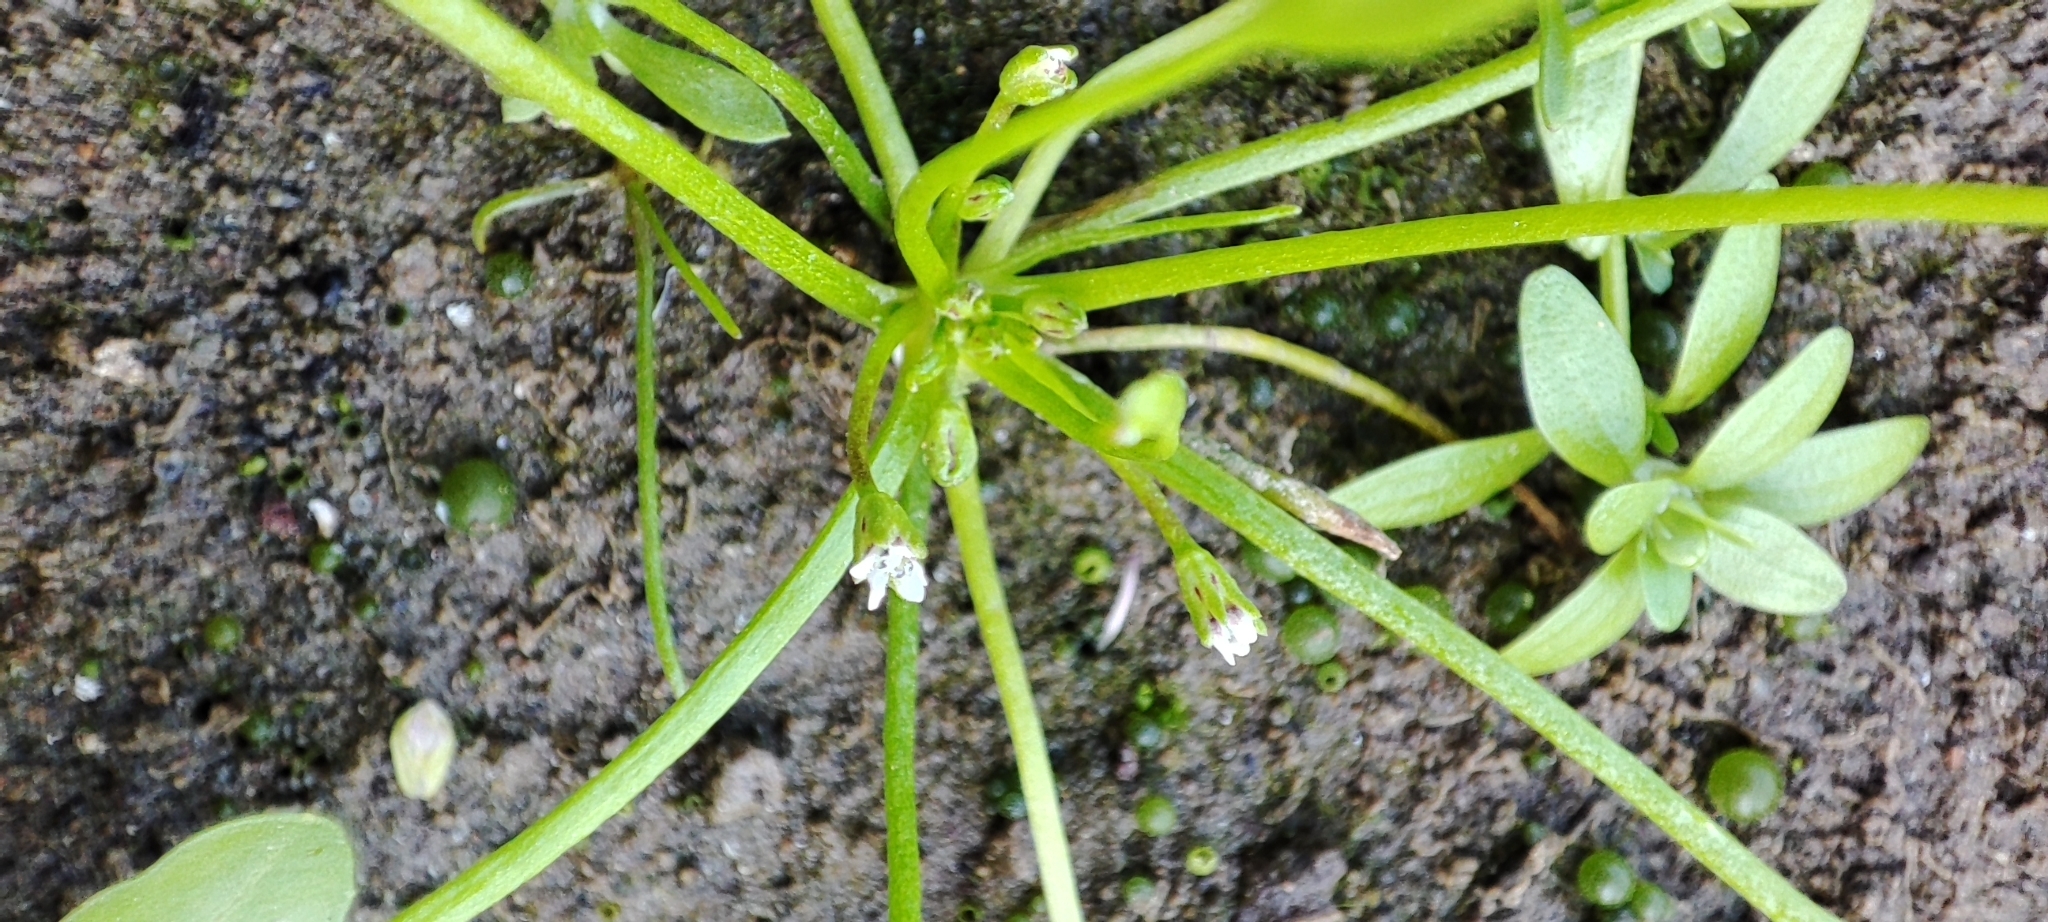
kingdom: Plantae
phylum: Tracheophyta
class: Magnoliopsida
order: Lamiales
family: Scrophulariaceae
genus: Limosella
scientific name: Limosella aquatica
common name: Mudwort
